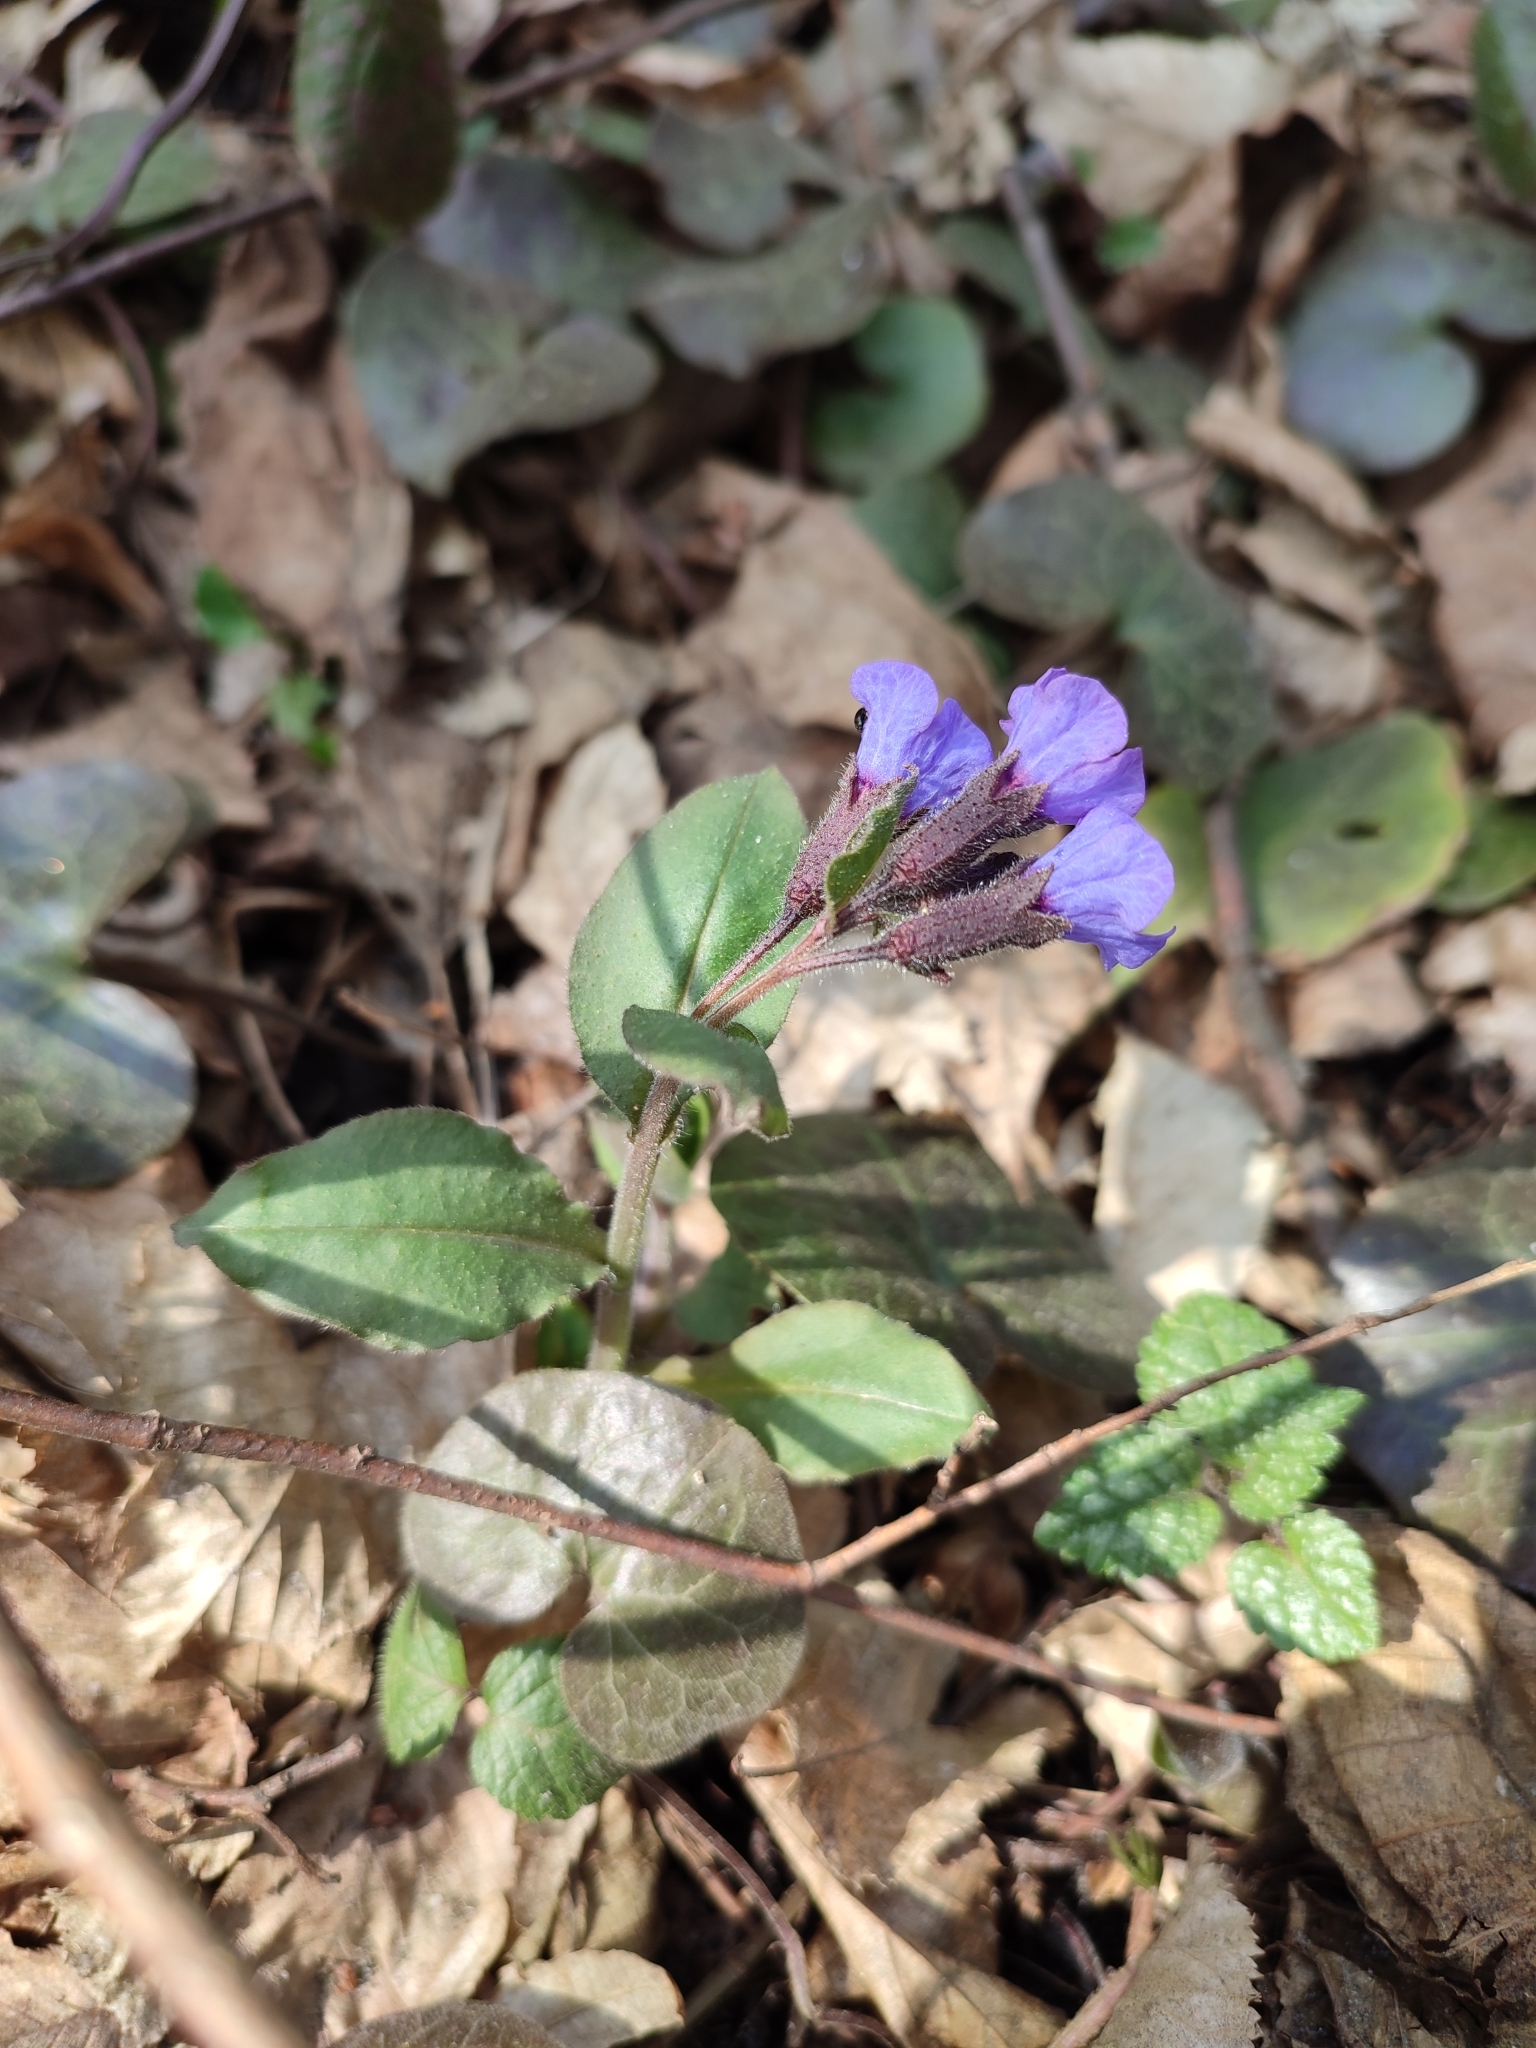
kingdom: Plantae
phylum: Tracheophyta
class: Magnoliopsida
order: Boraginales
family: Boraginaceae
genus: Pulmonaria
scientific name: Pulmonaria obscura
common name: Suffolk lungwort
